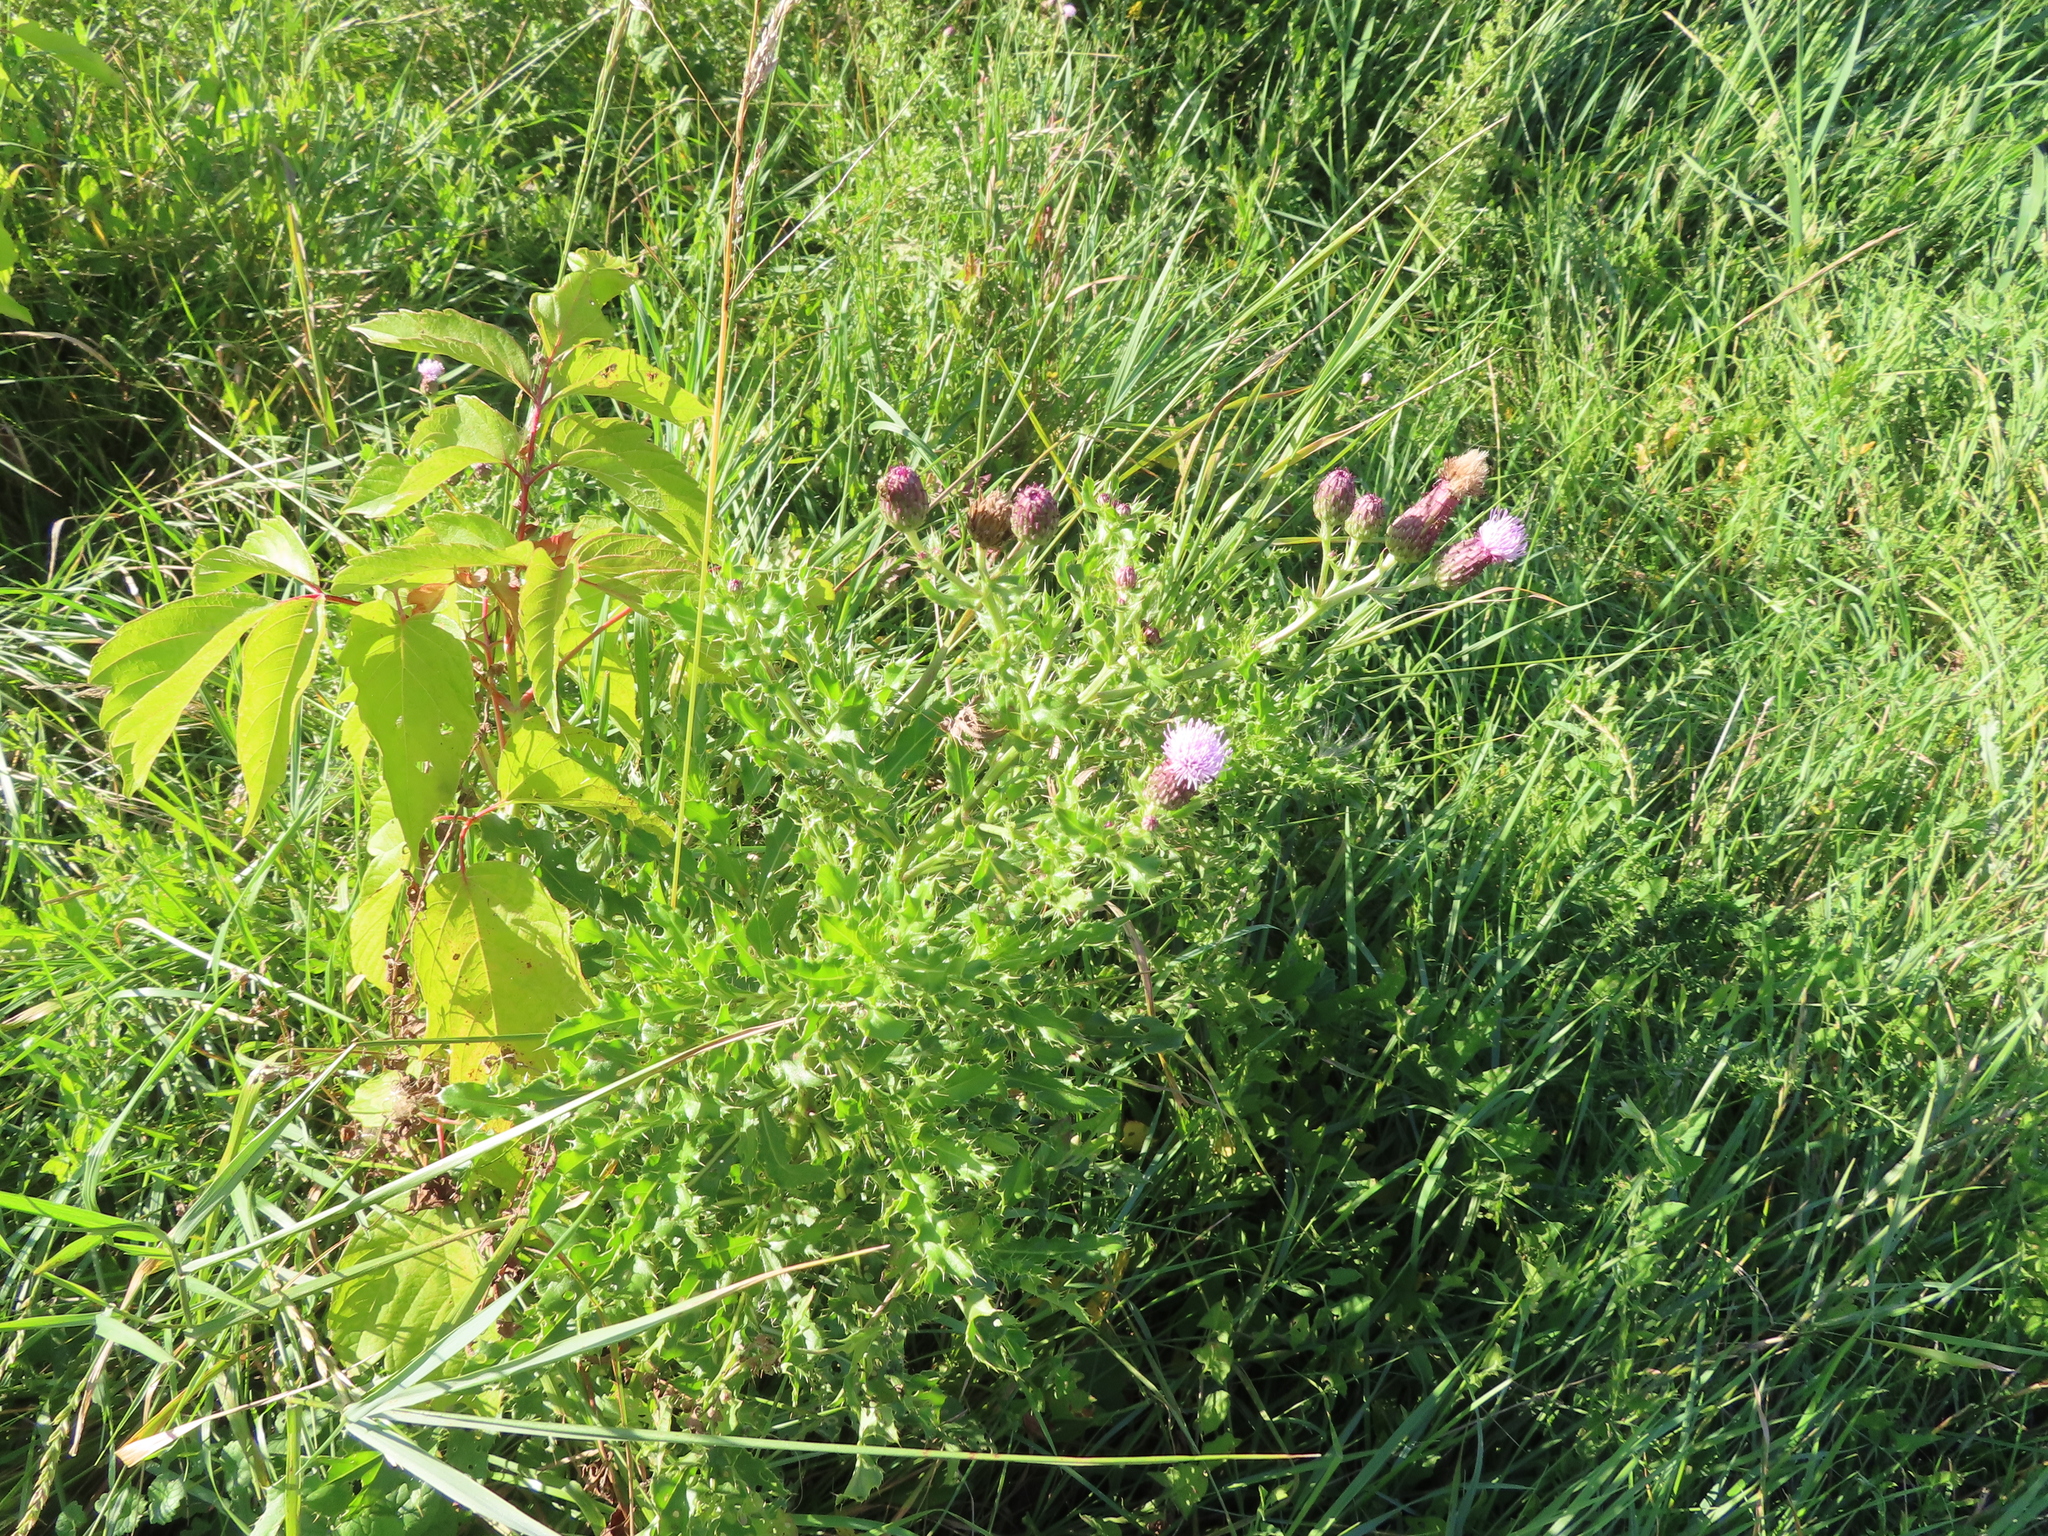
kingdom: Plantae
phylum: Tracheophyta
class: Magnoliopsida
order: Asterales
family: Asteraceae
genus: Cirsium
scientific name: Cirsium arvense
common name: Creeping thistle
